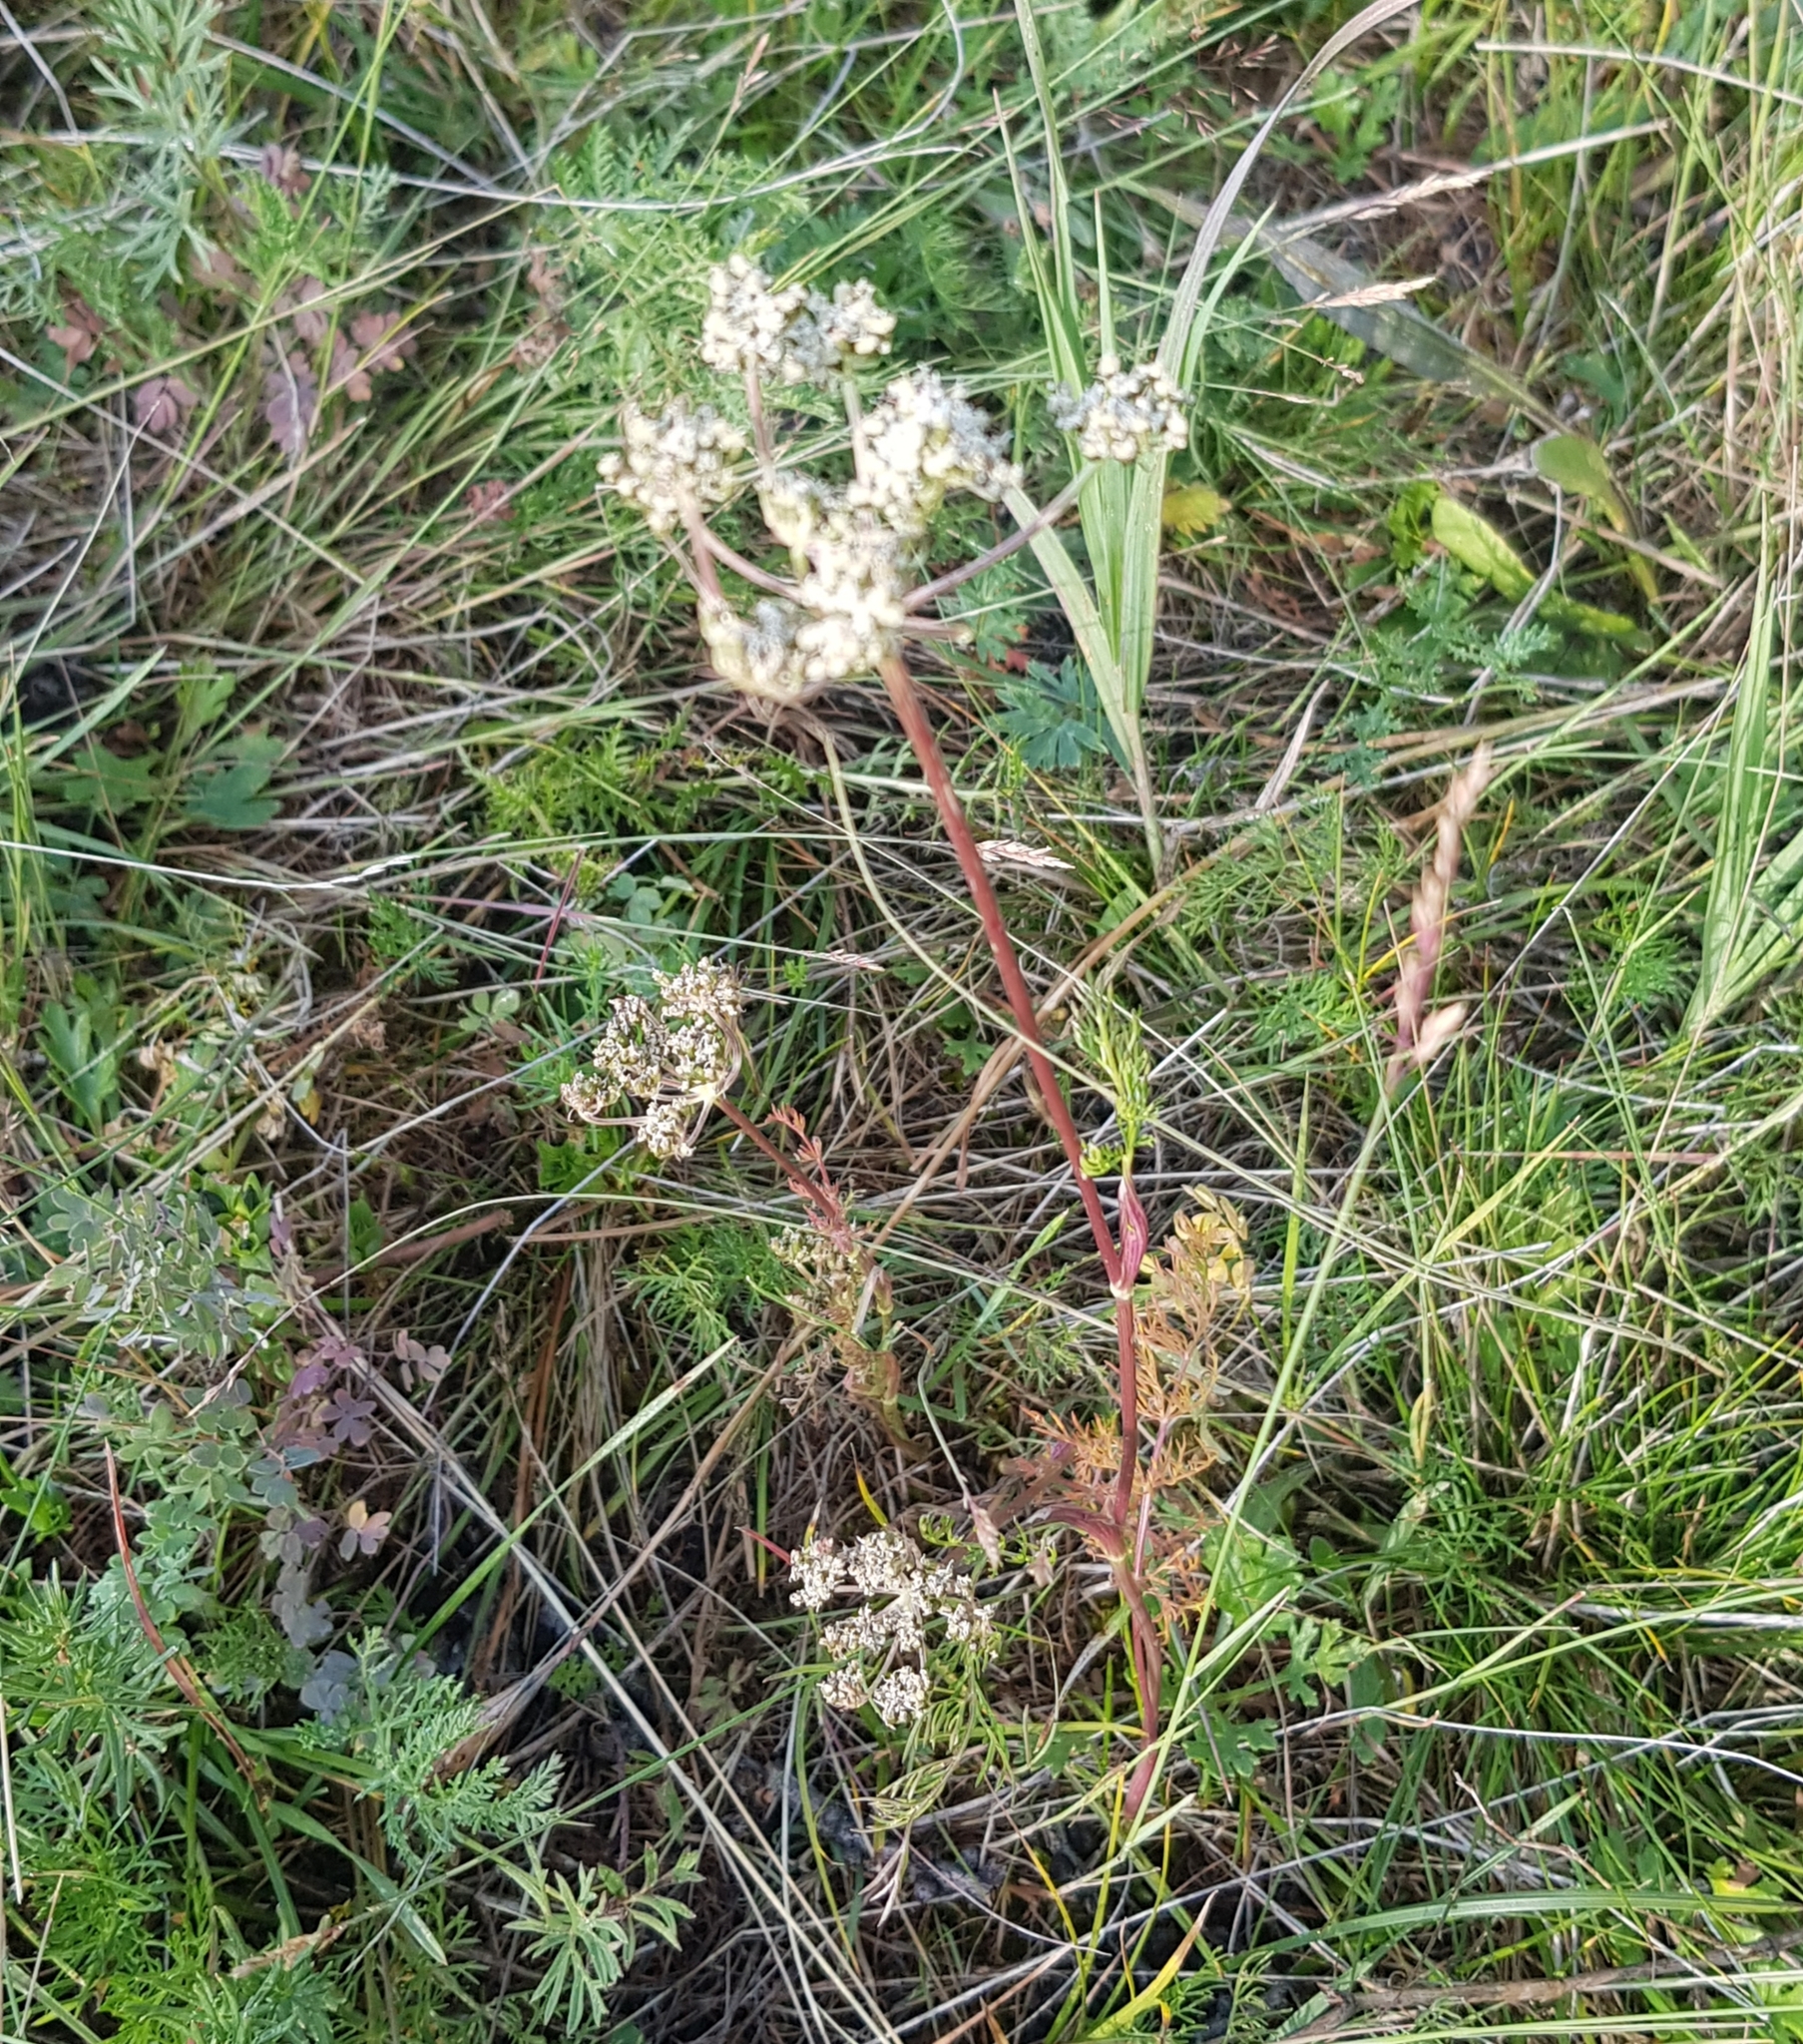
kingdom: Plantae
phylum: Tracheophyta
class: Magnoliopsida
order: Apiales
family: Apiaceae
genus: Carum
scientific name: Carum carvi
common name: Caraway
